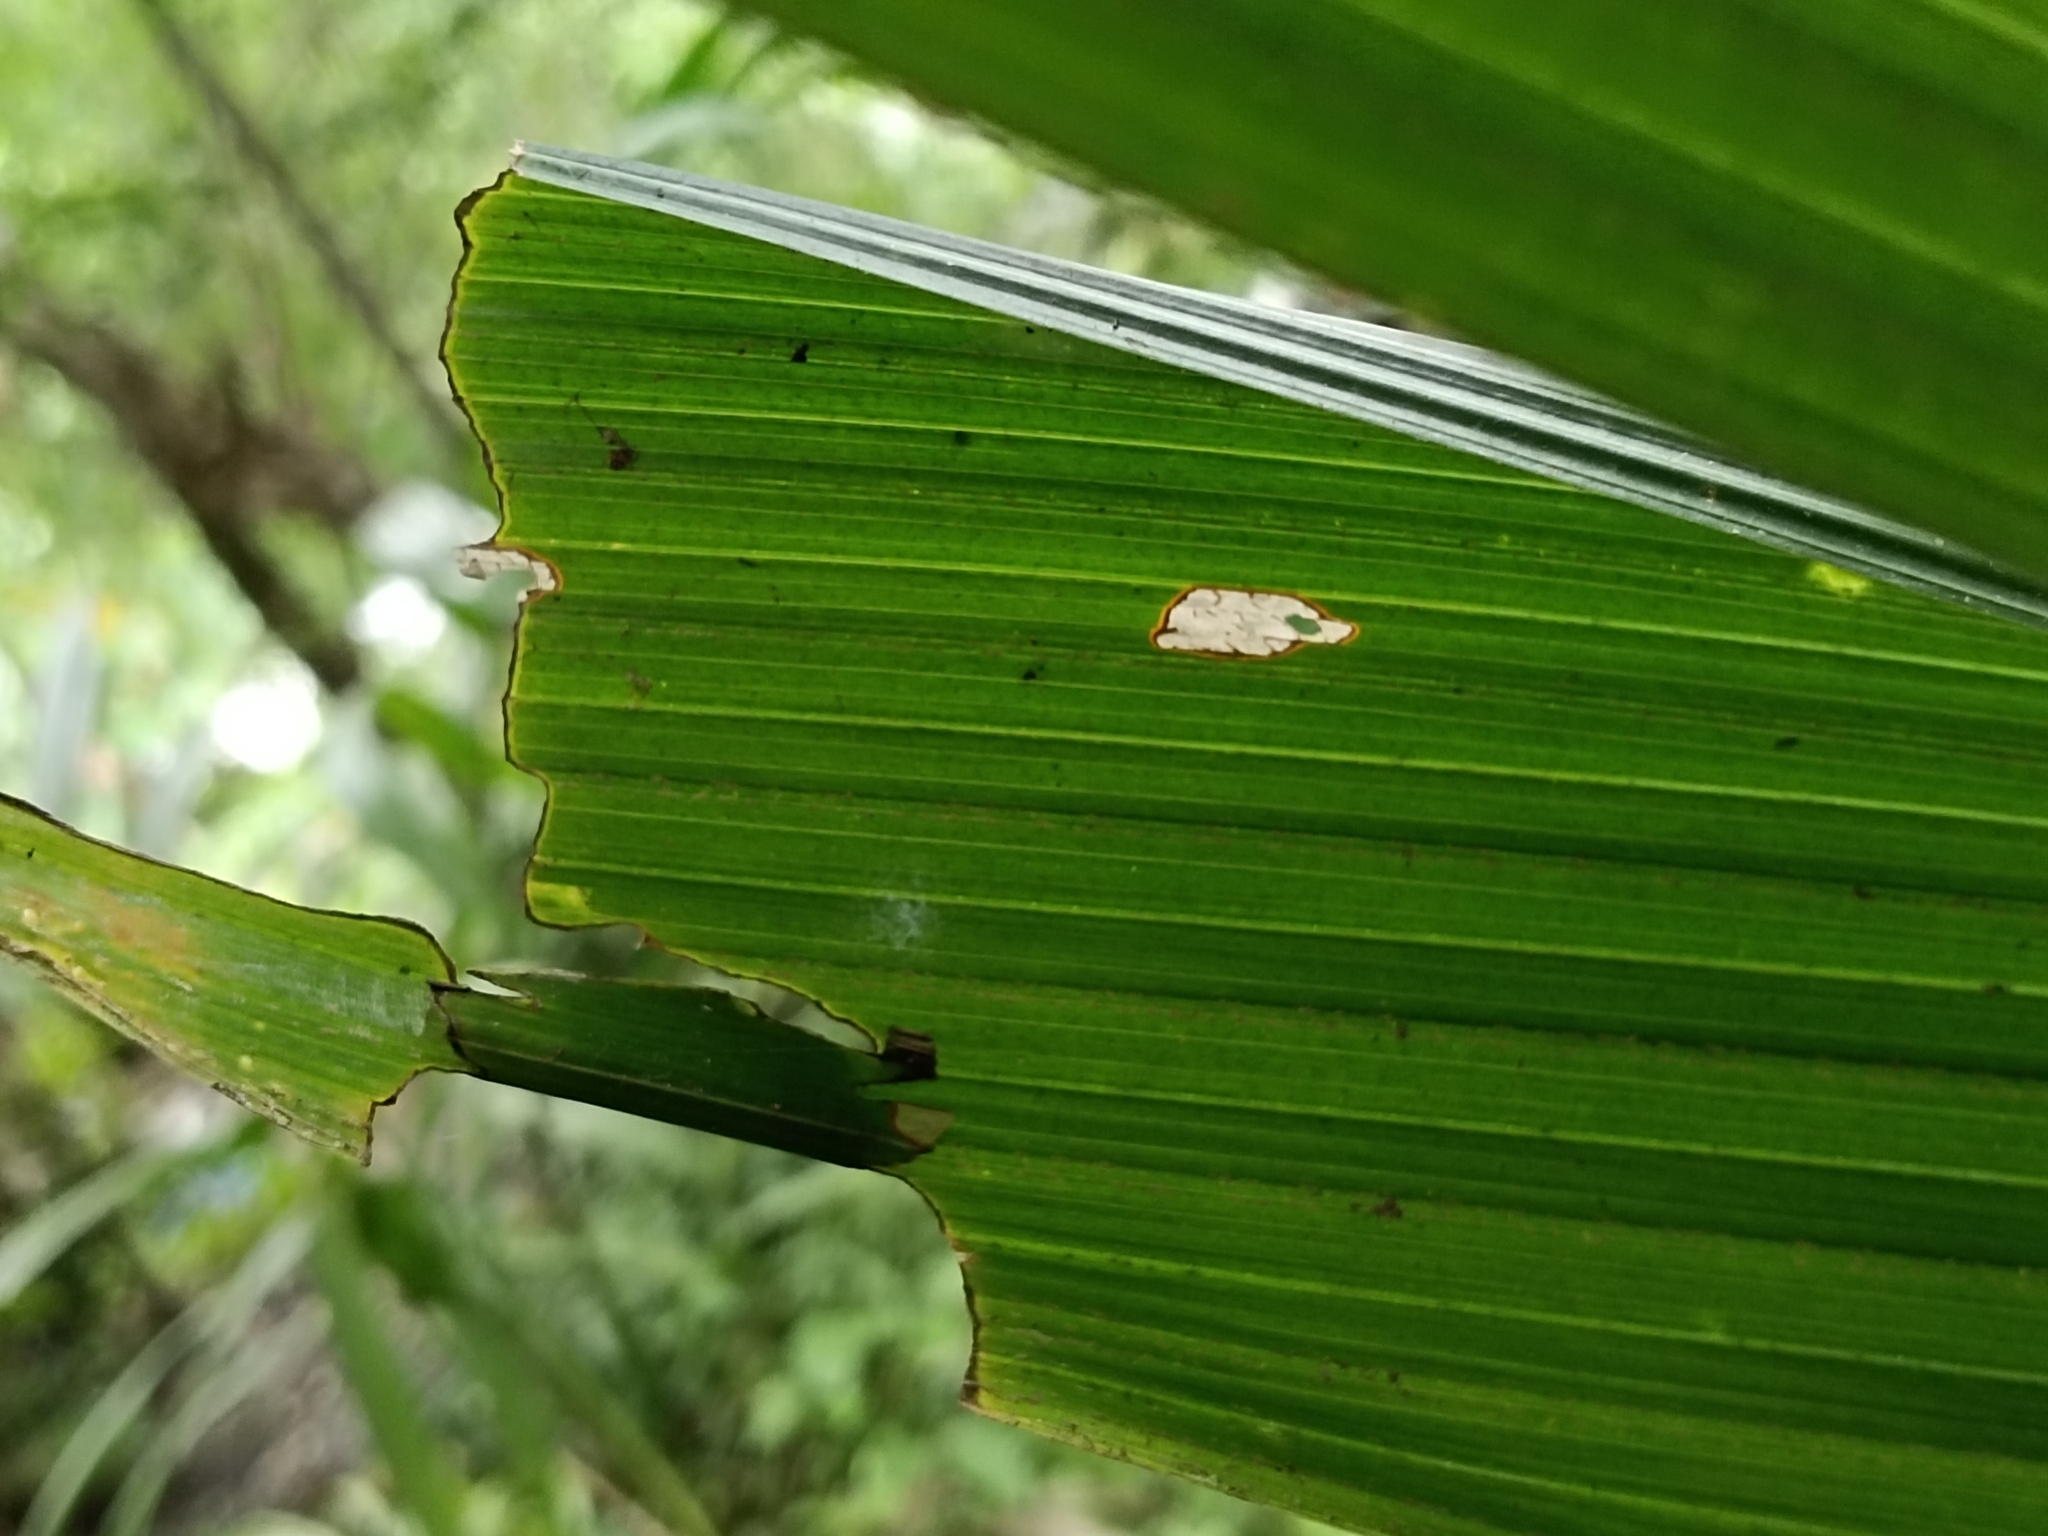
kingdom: Animalia
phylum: Arthropoda
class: Insecta
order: Lepidoptera
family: Hesperiidae
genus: Gangara
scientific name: Gangara thyrsis
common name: Giant redeye
